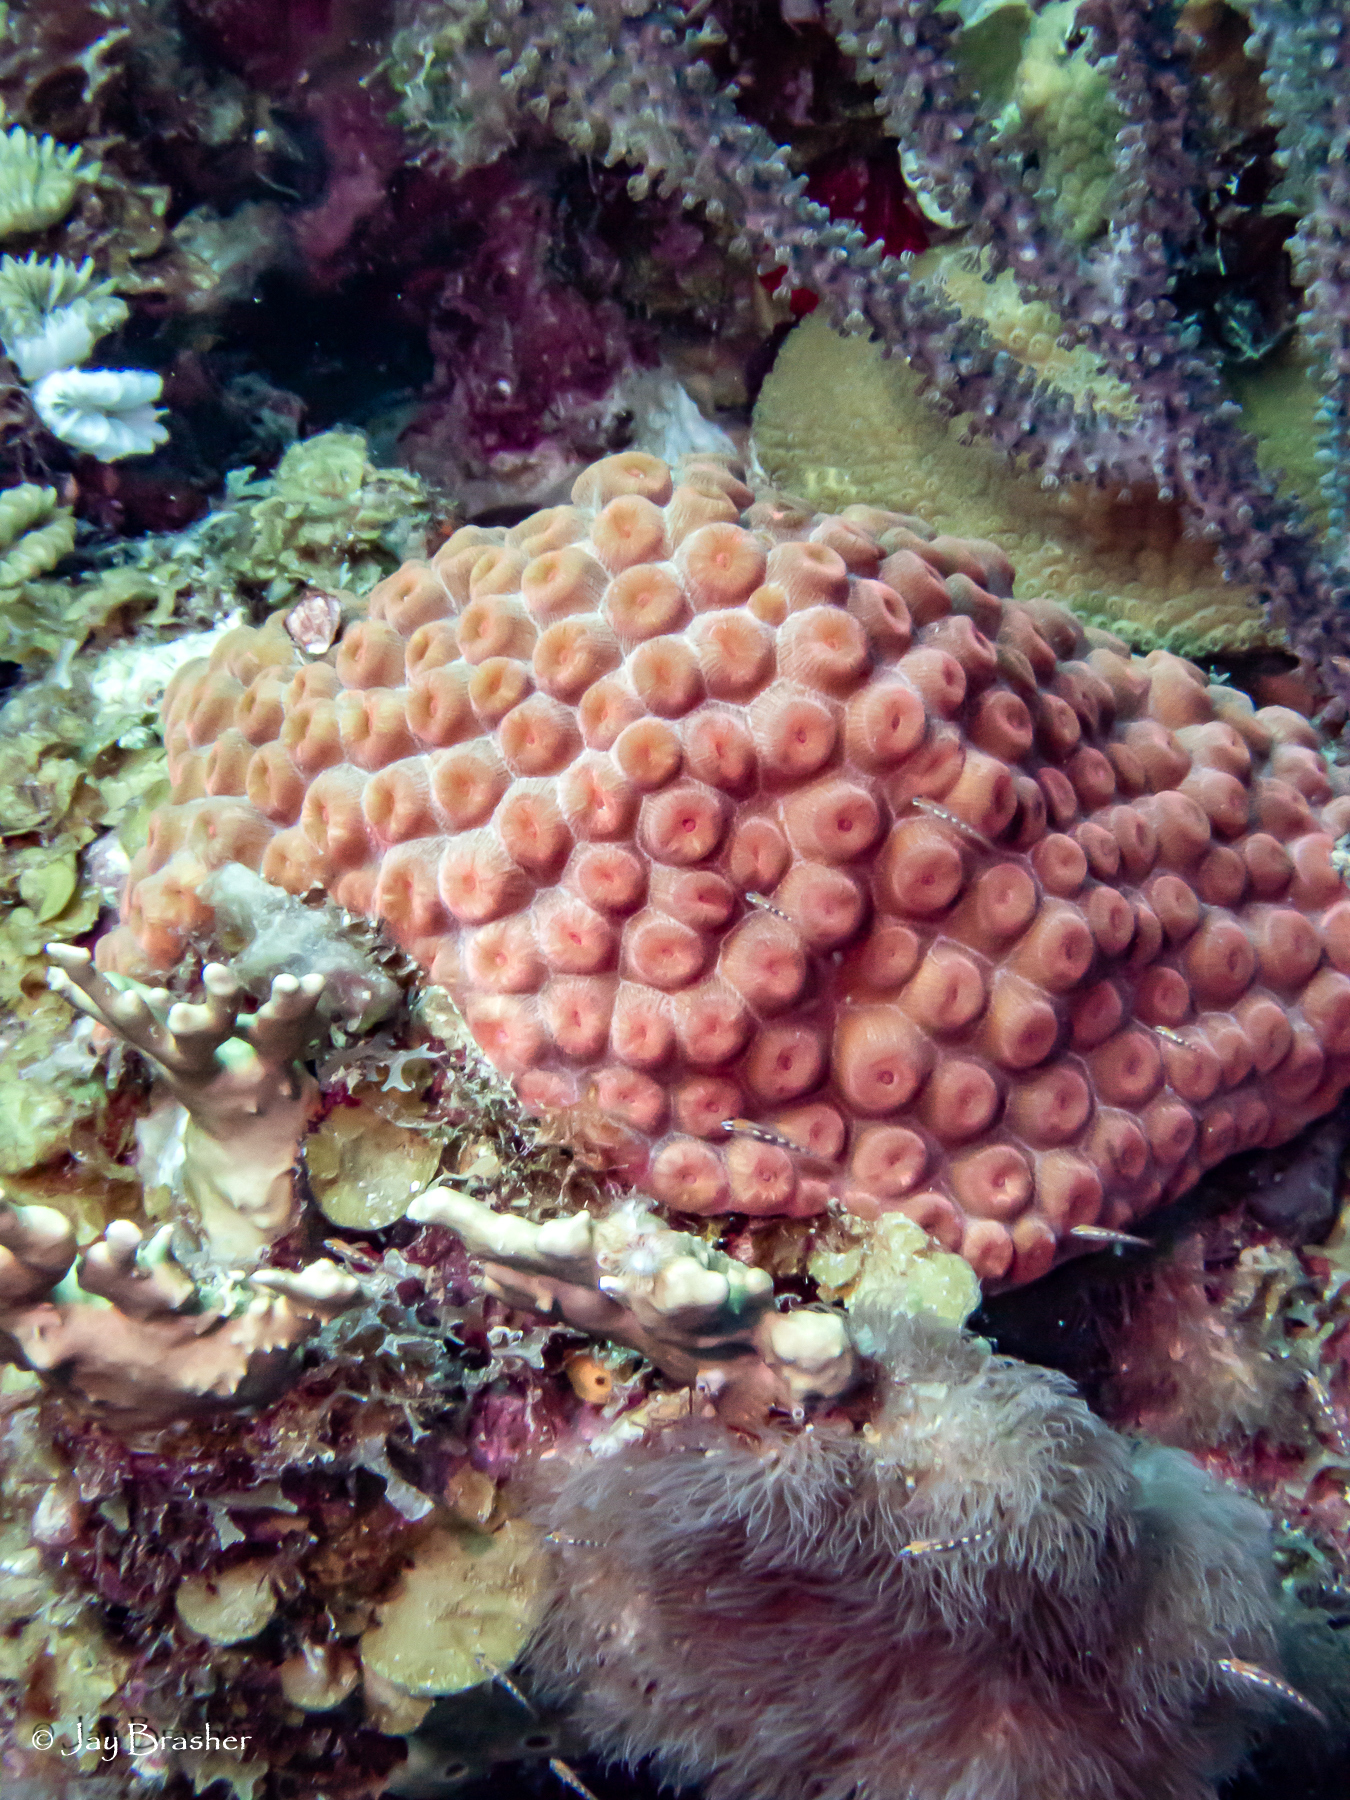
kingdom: Animalia
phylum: Cnidaria
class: Anthozoa
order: Scleractinia
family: Montastraeidae
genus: Montastraea
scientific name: Montastraea cavernosa
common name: Great star coral
